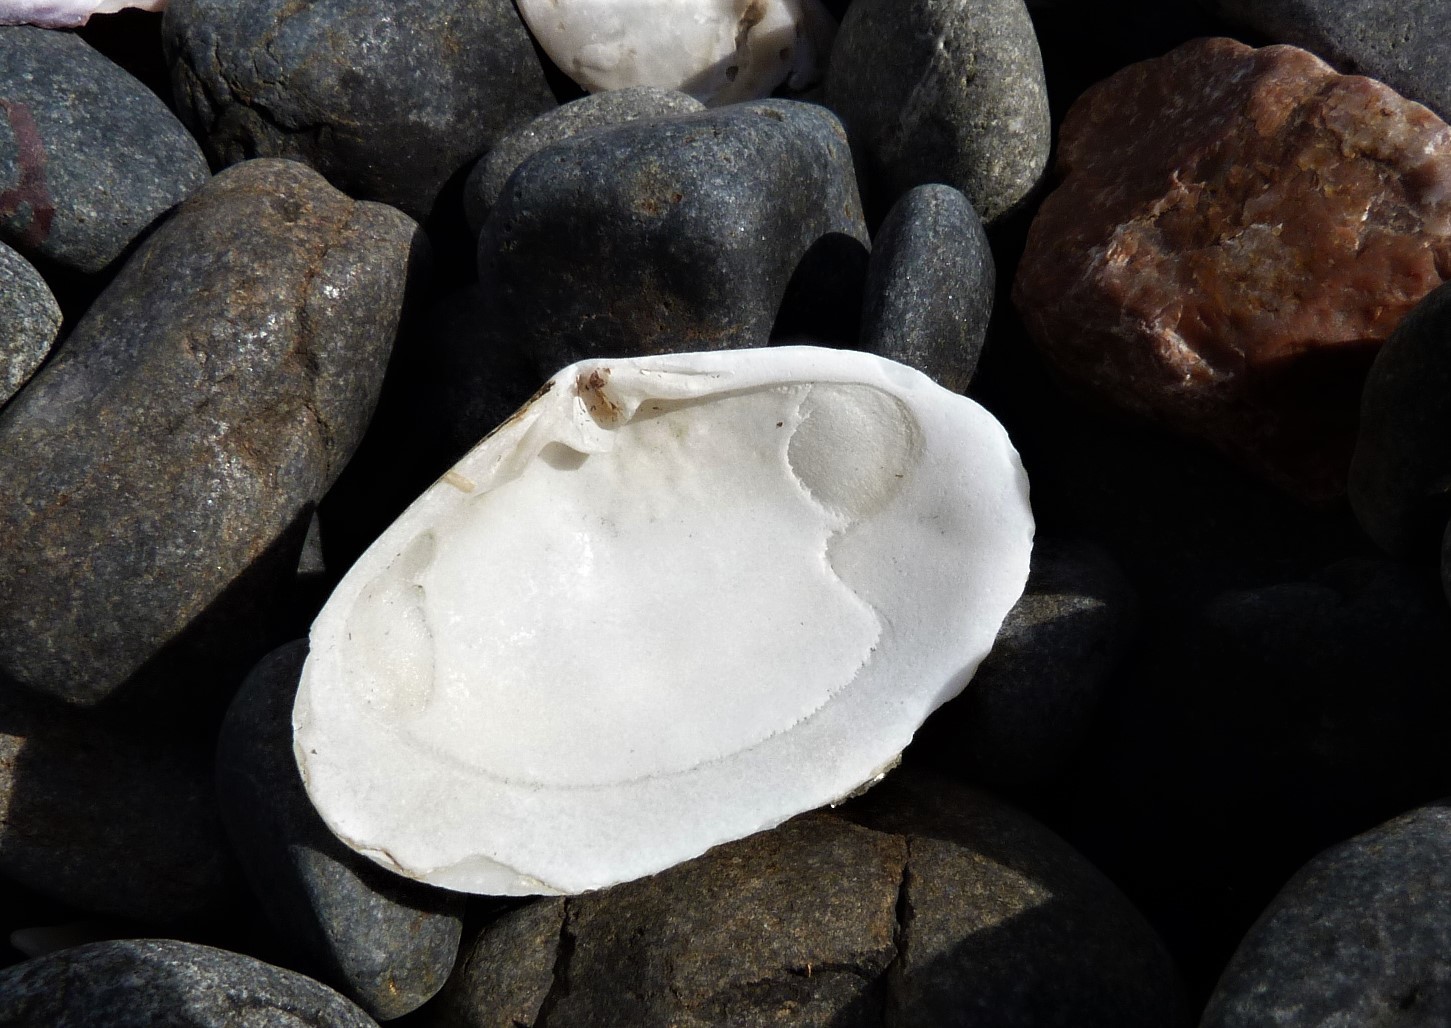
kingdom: Animalia
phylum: Mollusca
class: Bivalvia
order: Venerida
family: Mesodesmatidae
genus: Paphies
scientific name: Paphies australis
